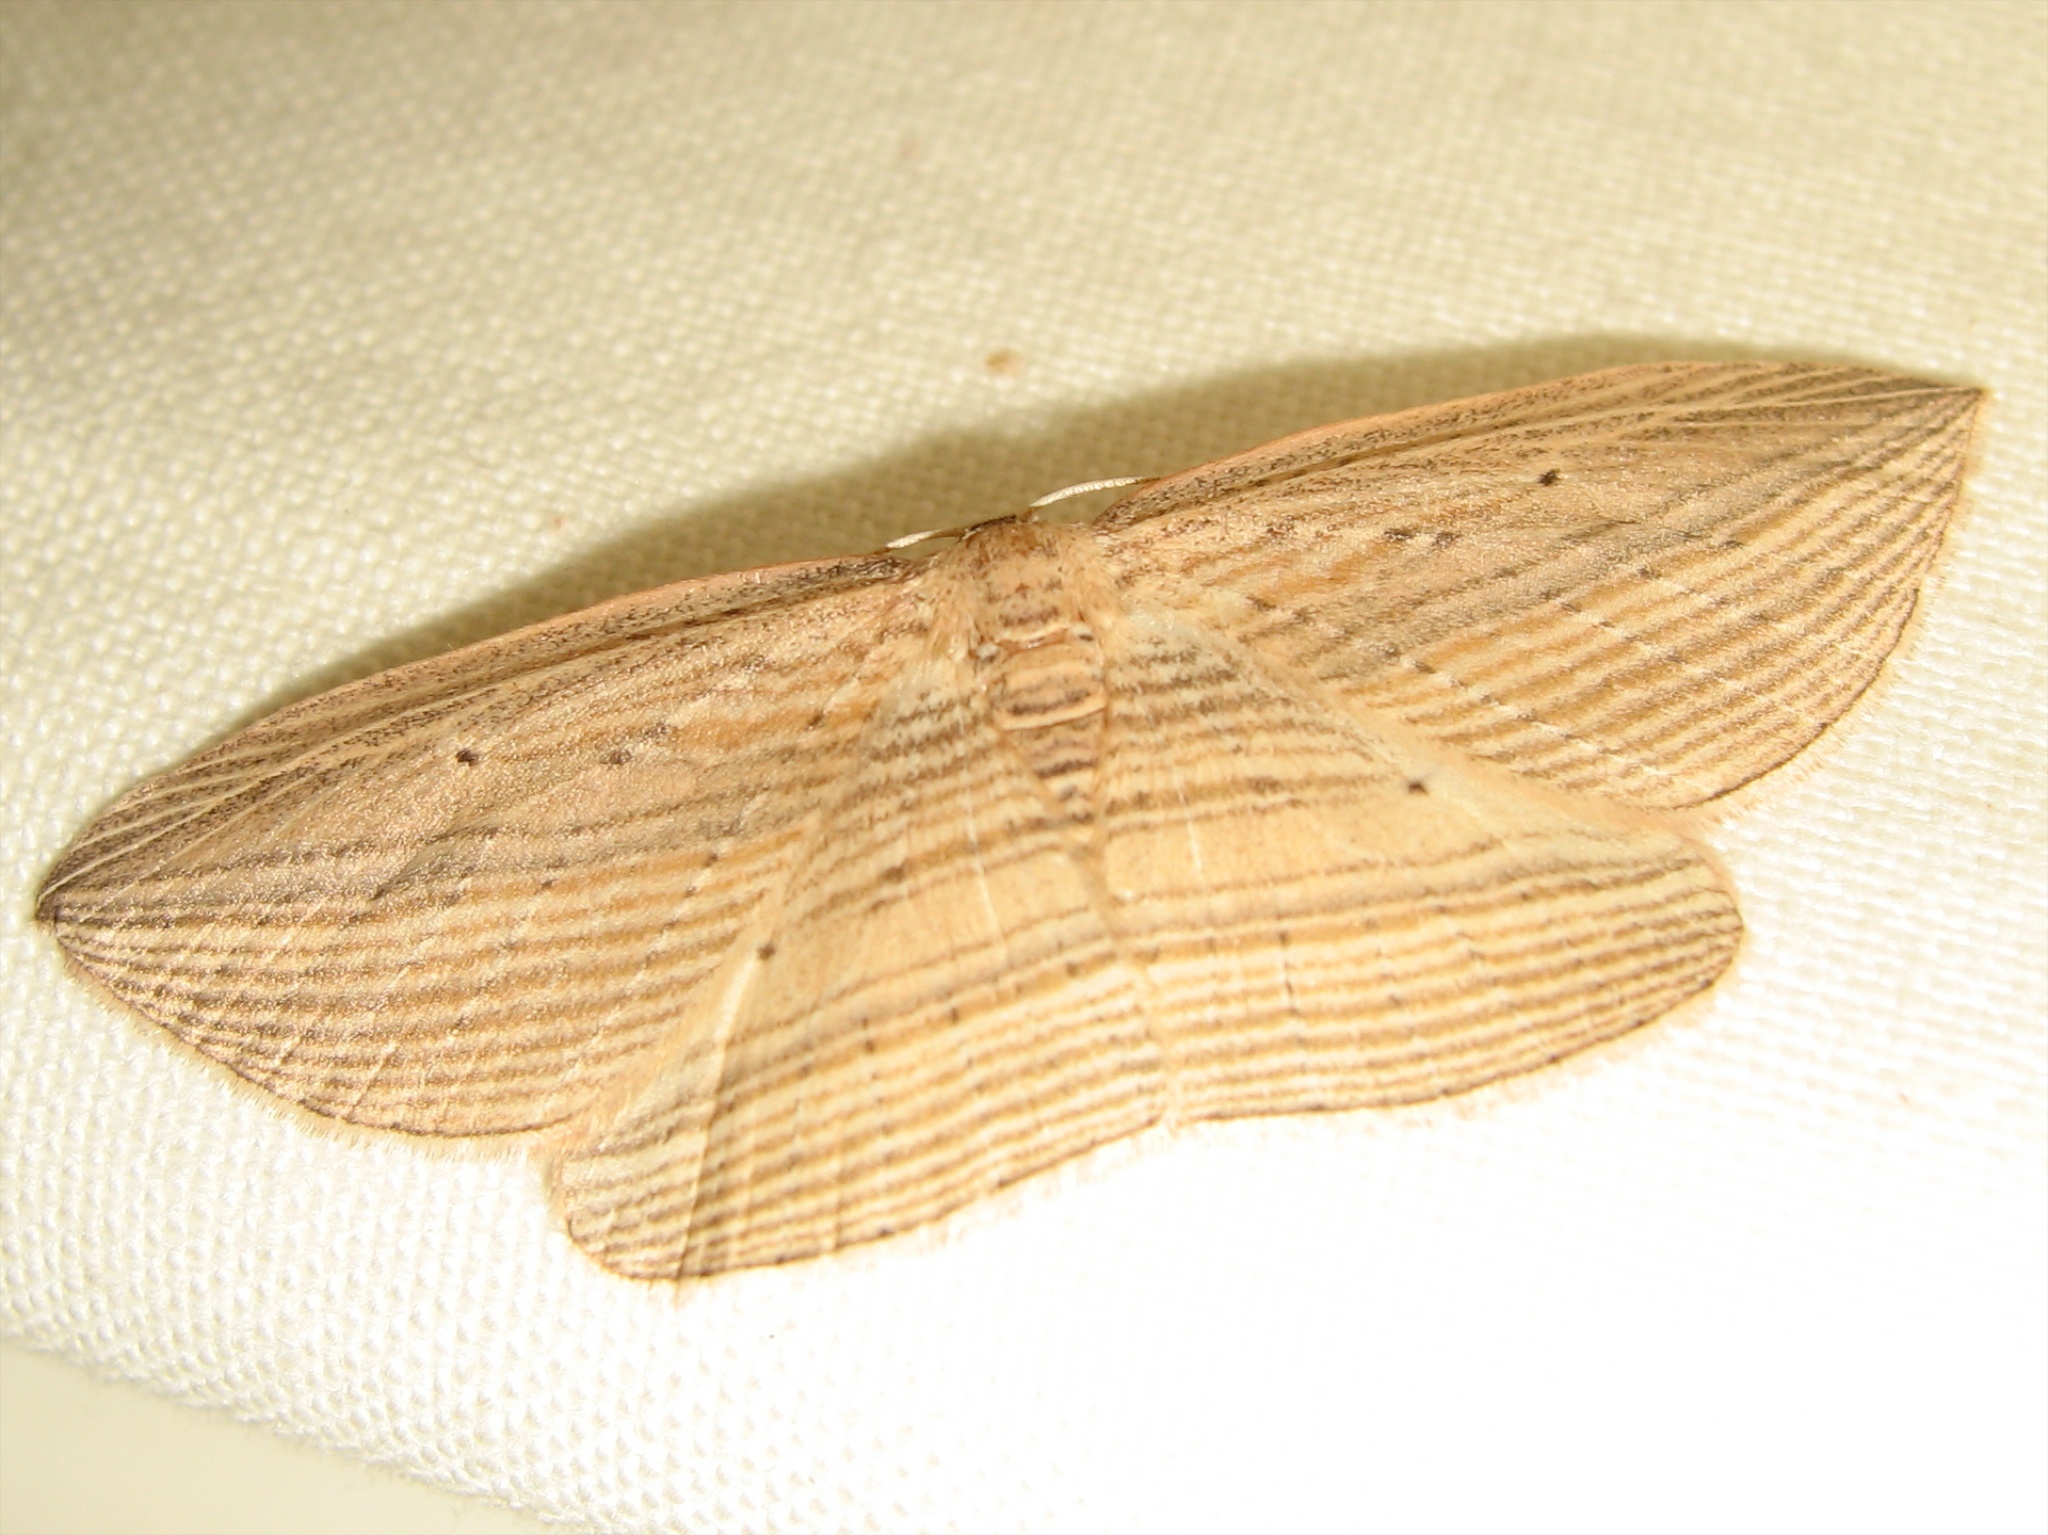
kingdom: Animalia
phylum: Arthropoda
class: Insecta
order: Lepidoptera
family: Geometridae
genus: Epiphryne
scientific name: Epiphryne verriculata
